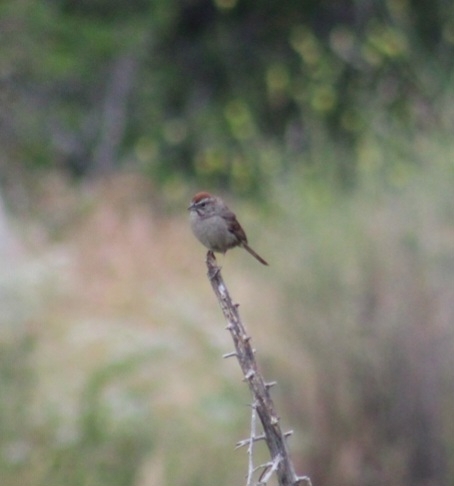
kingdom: Animalia
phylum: Chordata
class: Aves
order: Passeriformes
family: Passerellidae
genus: Aimophila
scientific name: Aimophila ruficeps
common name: Rufous-crowned sparrow
